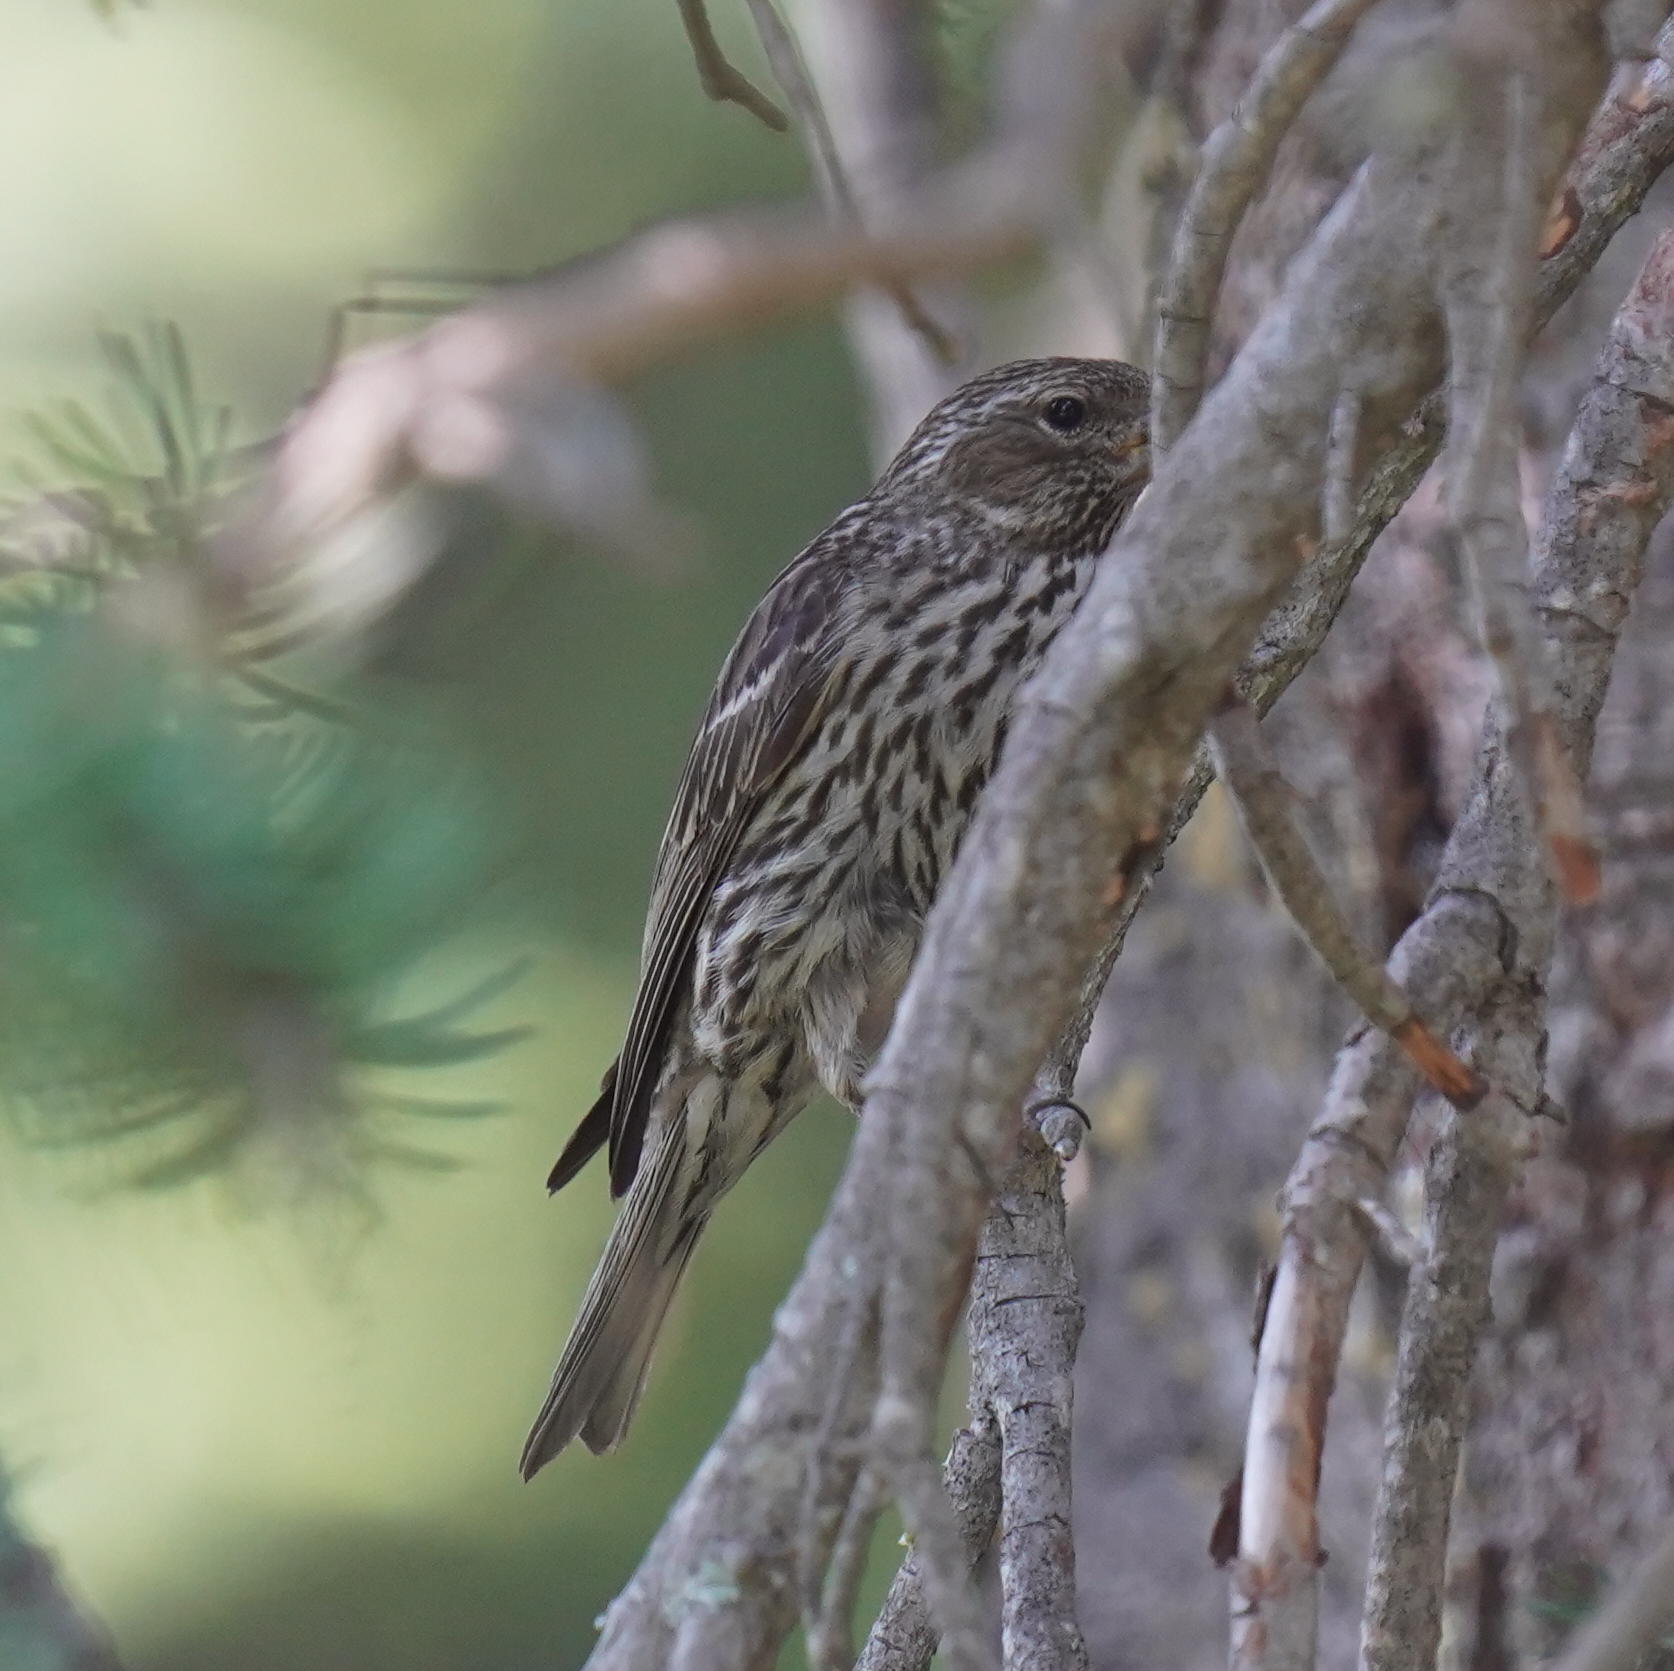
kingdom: Animalia
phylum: Chordata
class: Aves
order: Passeriformes
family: Fringillidae
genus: Haemorhous
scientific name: Haemorhous cassinii
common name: Cassin's finch
